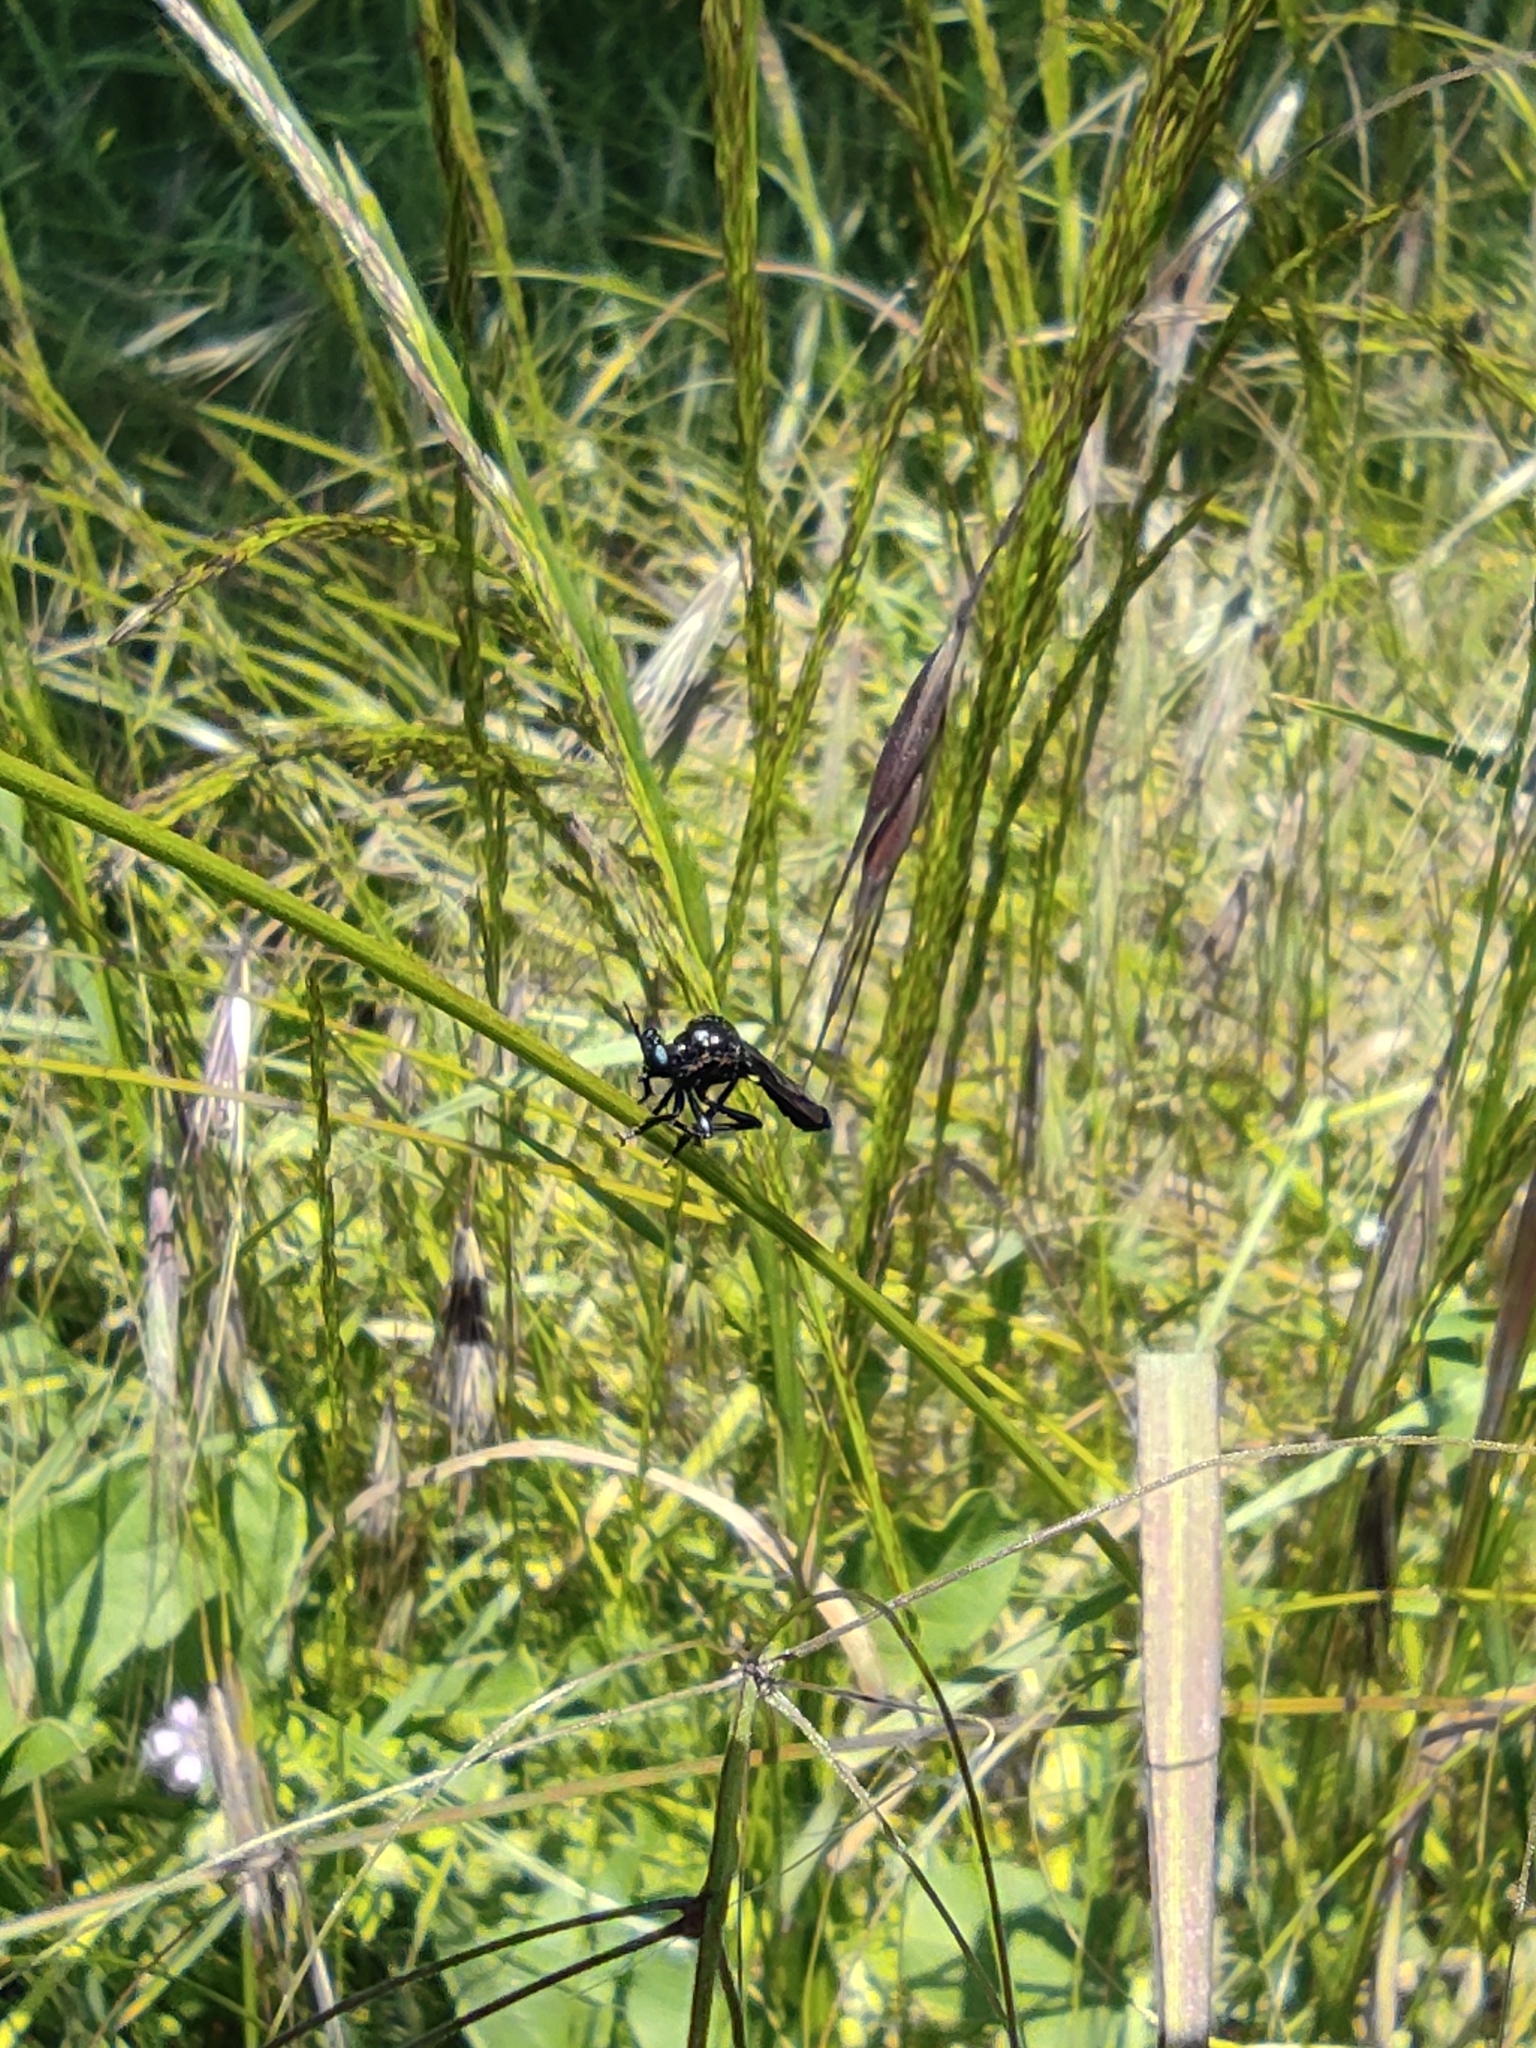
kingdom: Animalia
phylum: Arthropoda
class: Insecta
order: Diptera
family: Asilidae
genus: Dioctria
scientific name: Dioctria atricapilla
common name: Violet black-legged
